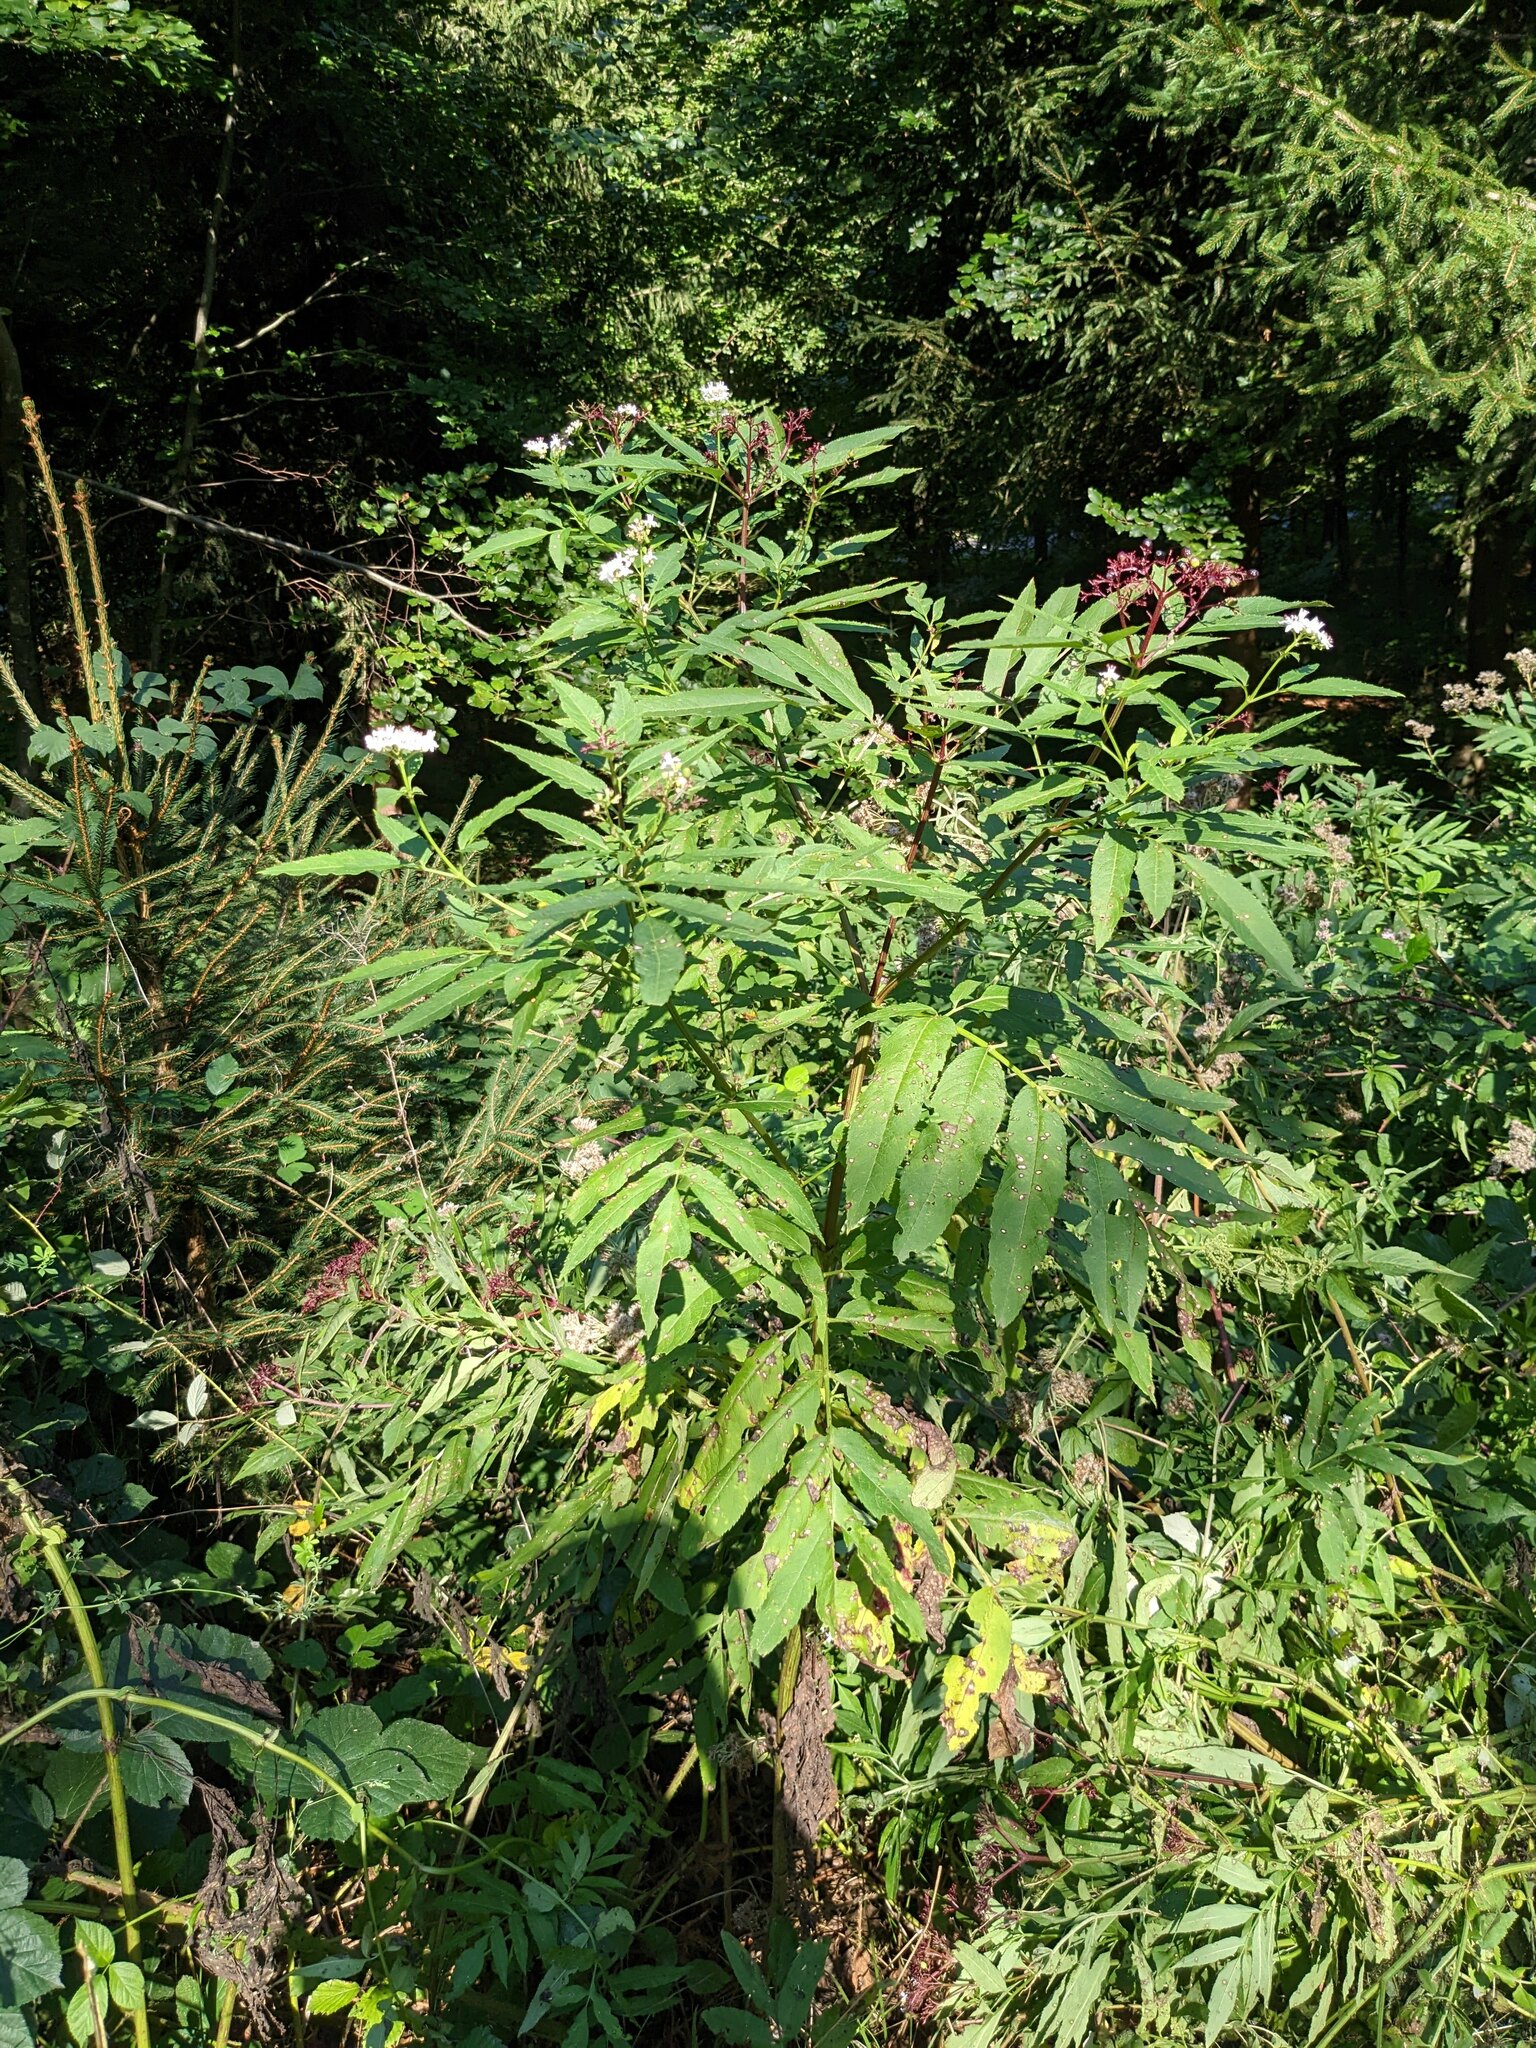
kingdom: Plantae
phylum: Tracheophyta
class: Magnoliopsida
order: Dipsacales
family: Viburnaceae
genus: Sambucus
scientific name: Sambucus ebulus
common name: Dwarf elder
